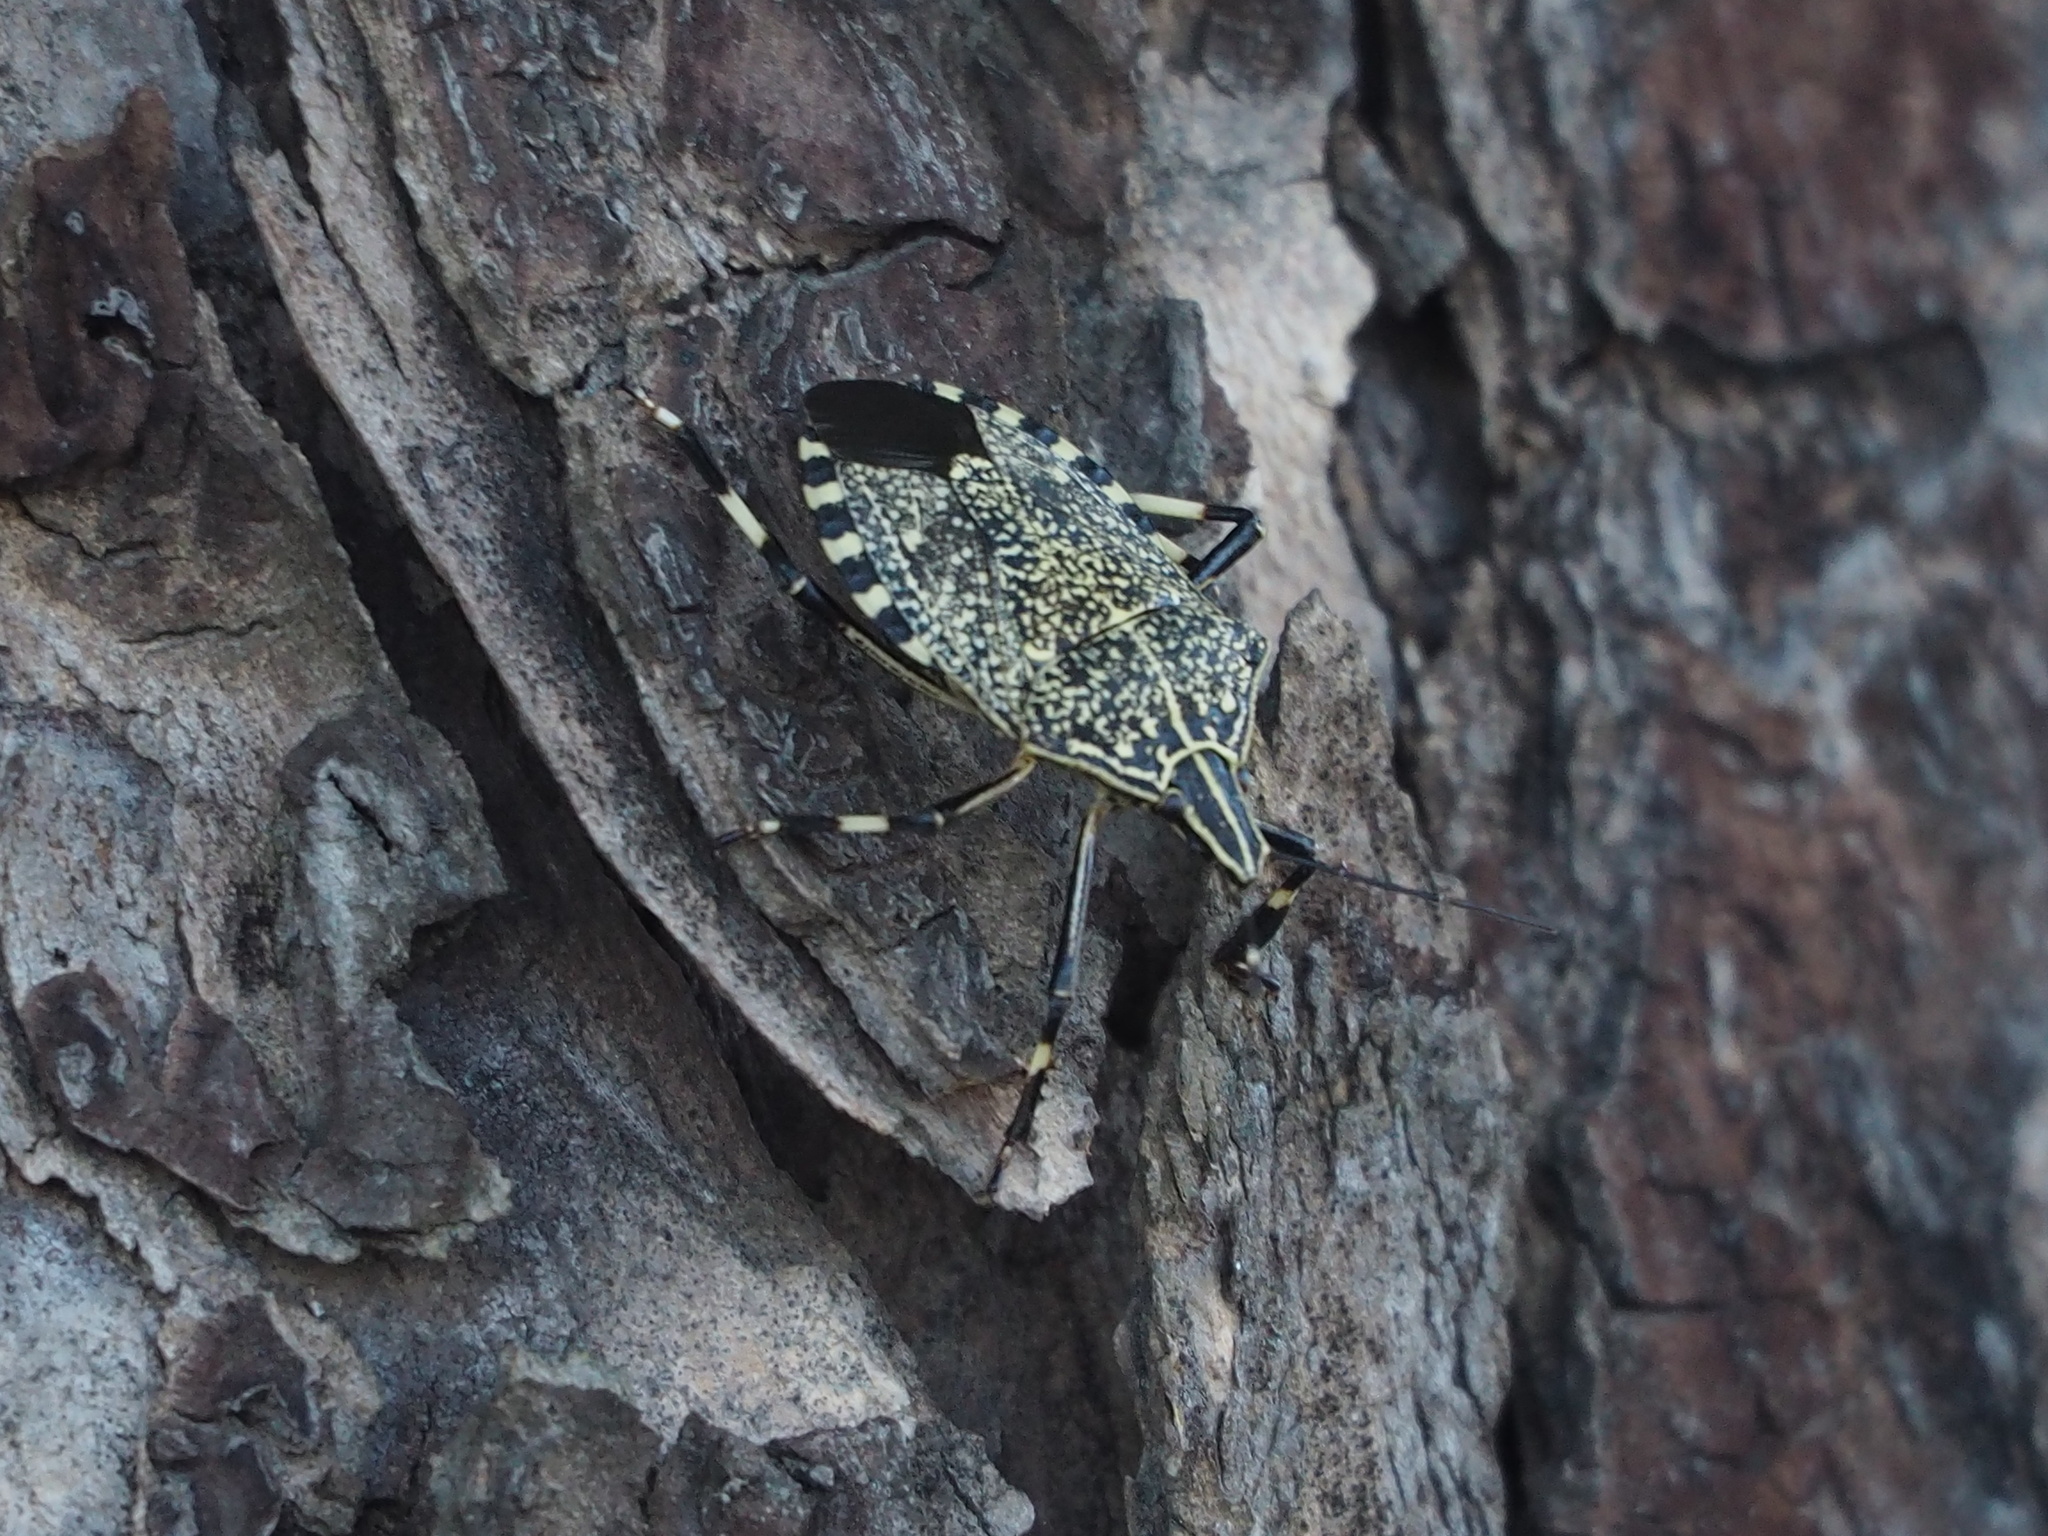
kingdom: Animalia
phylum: Arthropoda
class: Insecta
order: Hemiptera
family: Pentatomidae
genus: Erthesina
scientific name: Erthesina fullo
